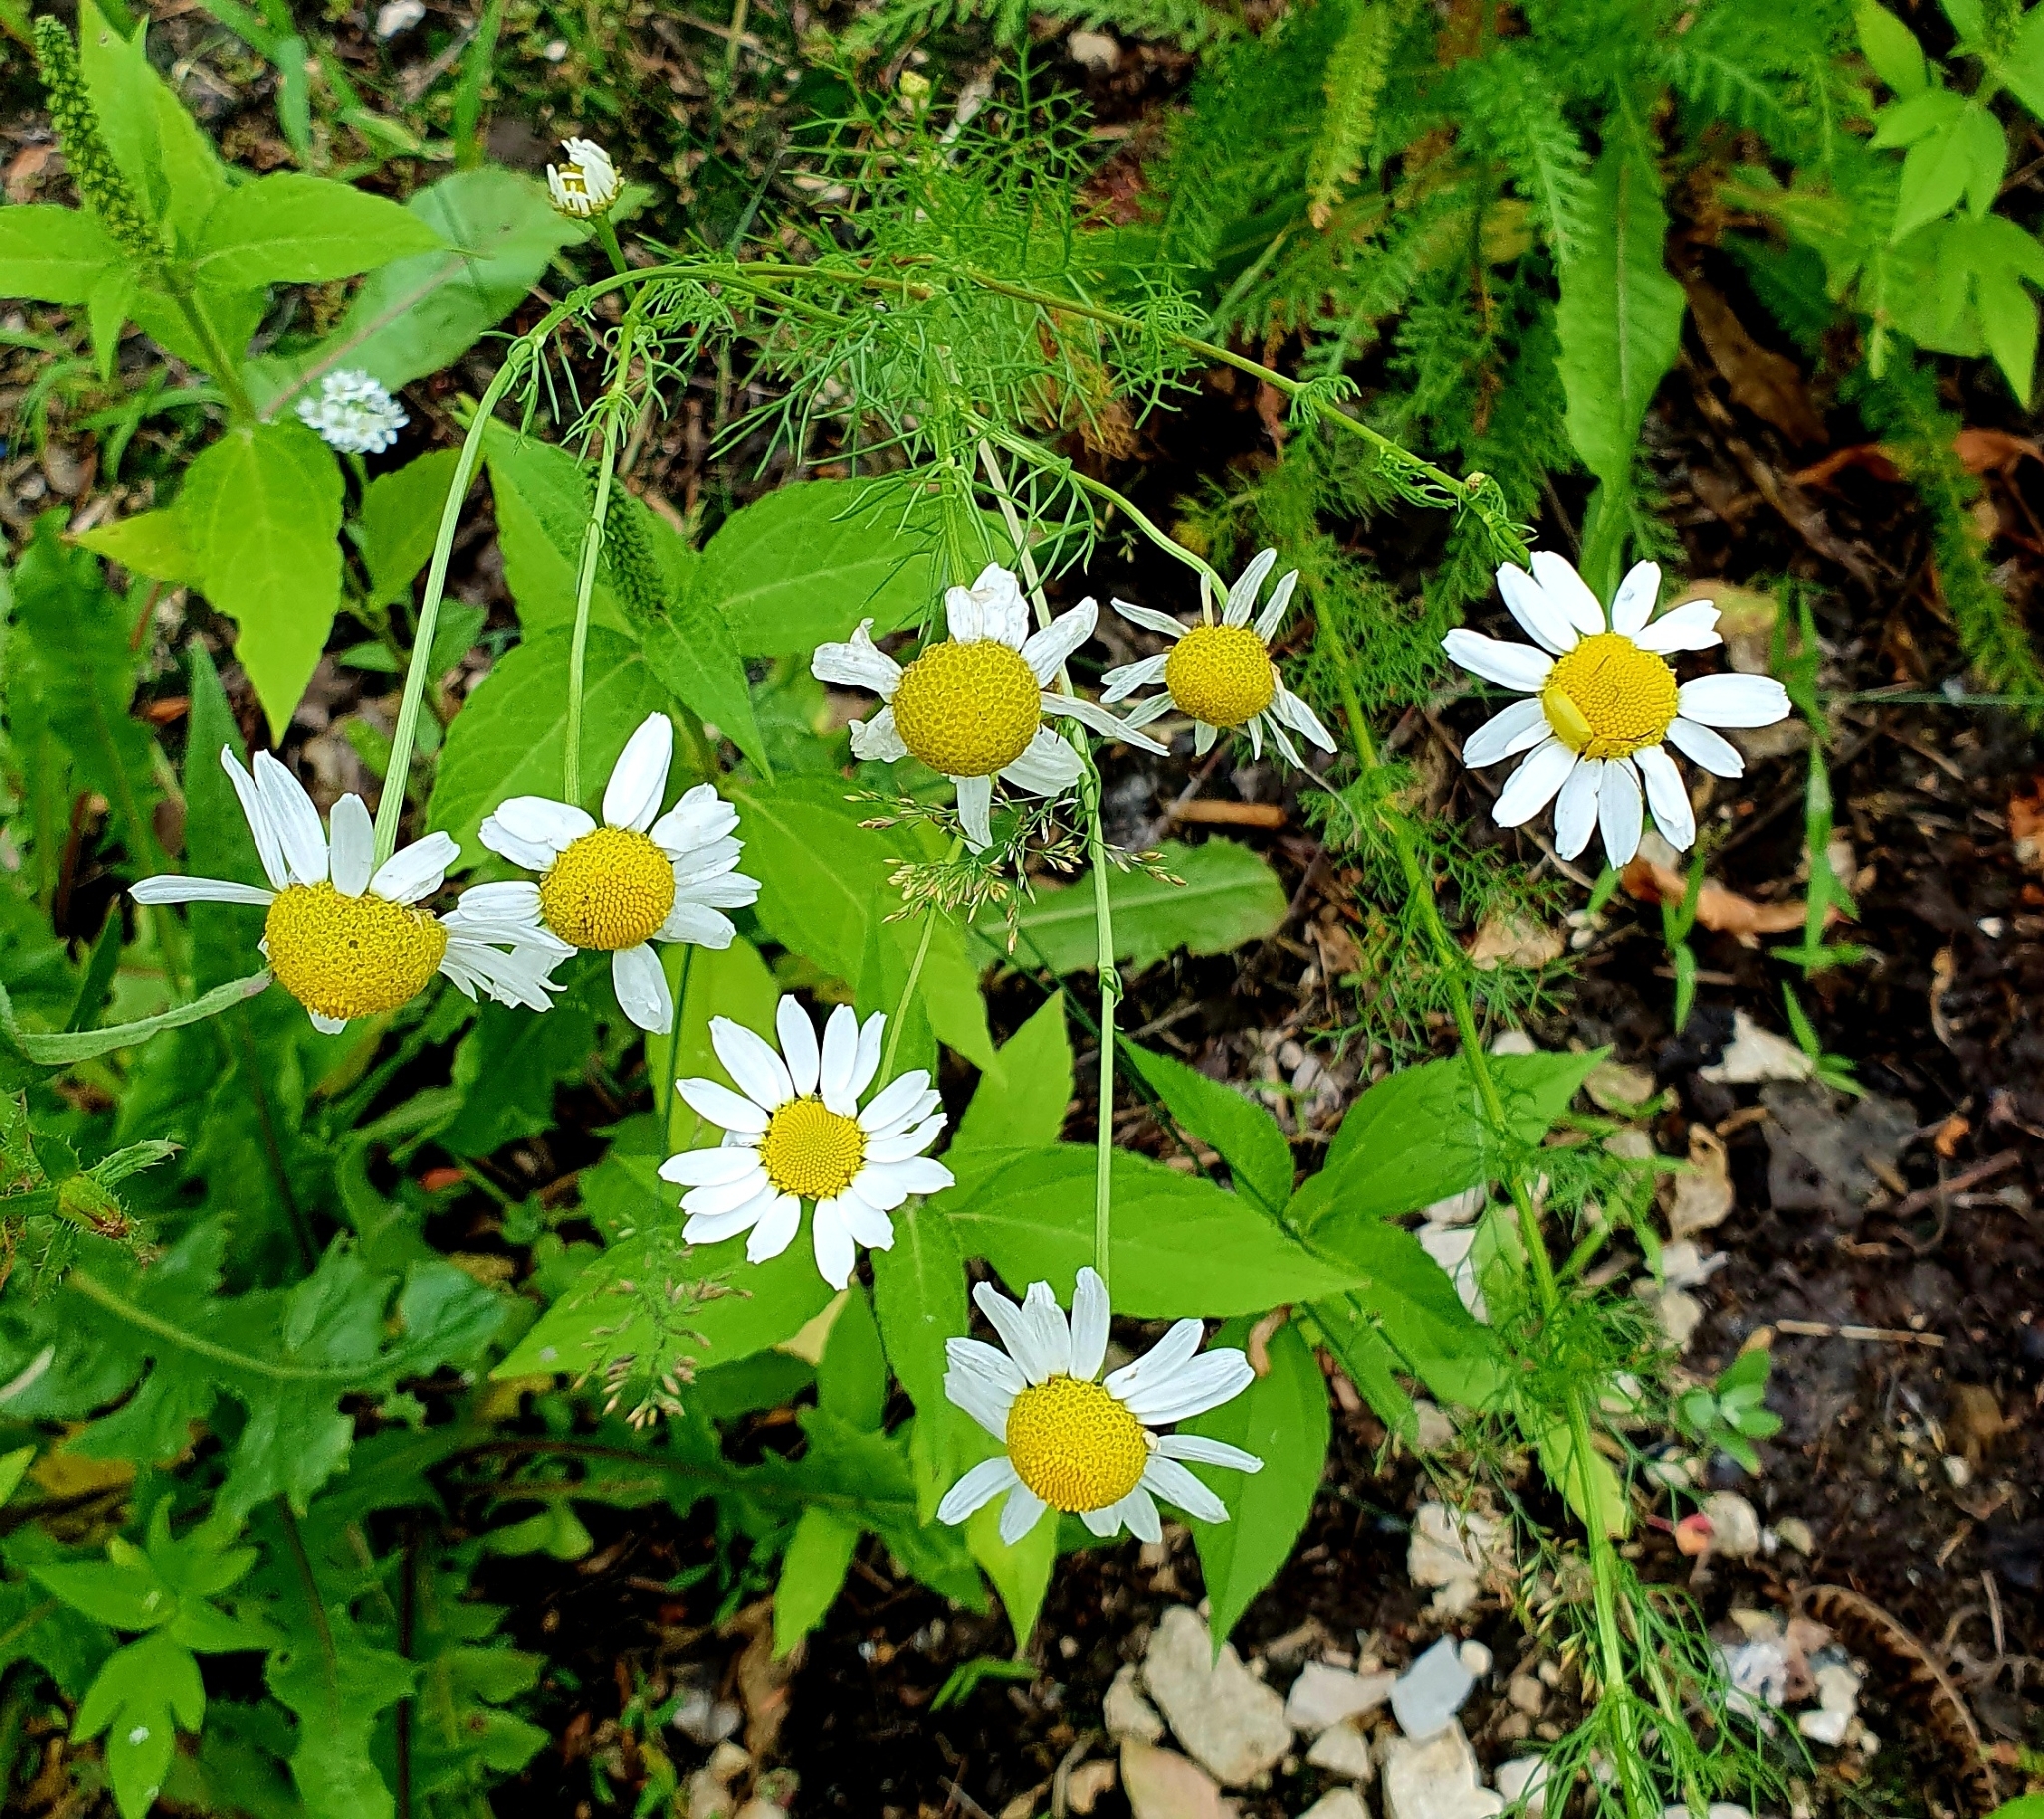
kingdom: Plantae
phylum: Tracheophyta
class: Magnoliopsida
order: Asterales
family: Asteraceae
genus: Tripleurospermum
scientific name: Tripleurospermum inodorum
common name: Scentless mayweed
